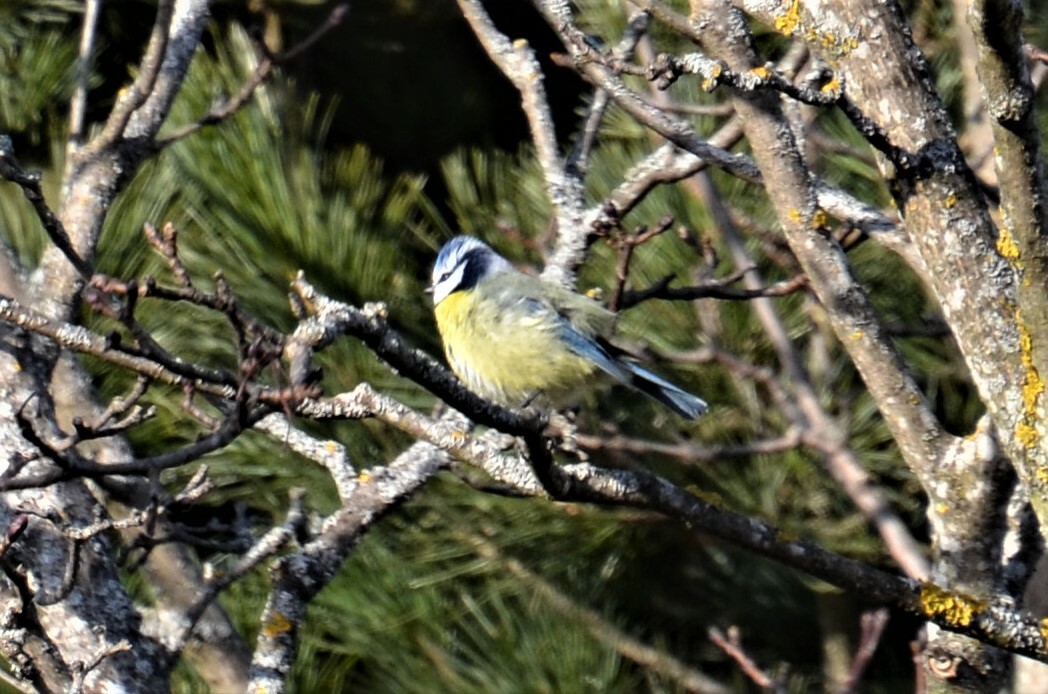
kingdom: Animalia
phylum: Chordata
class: Aves
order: Passeriformes
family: Paridae
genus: Cyanistes
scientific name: Cyanistes caeruleus
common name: Eurasian blue tit
